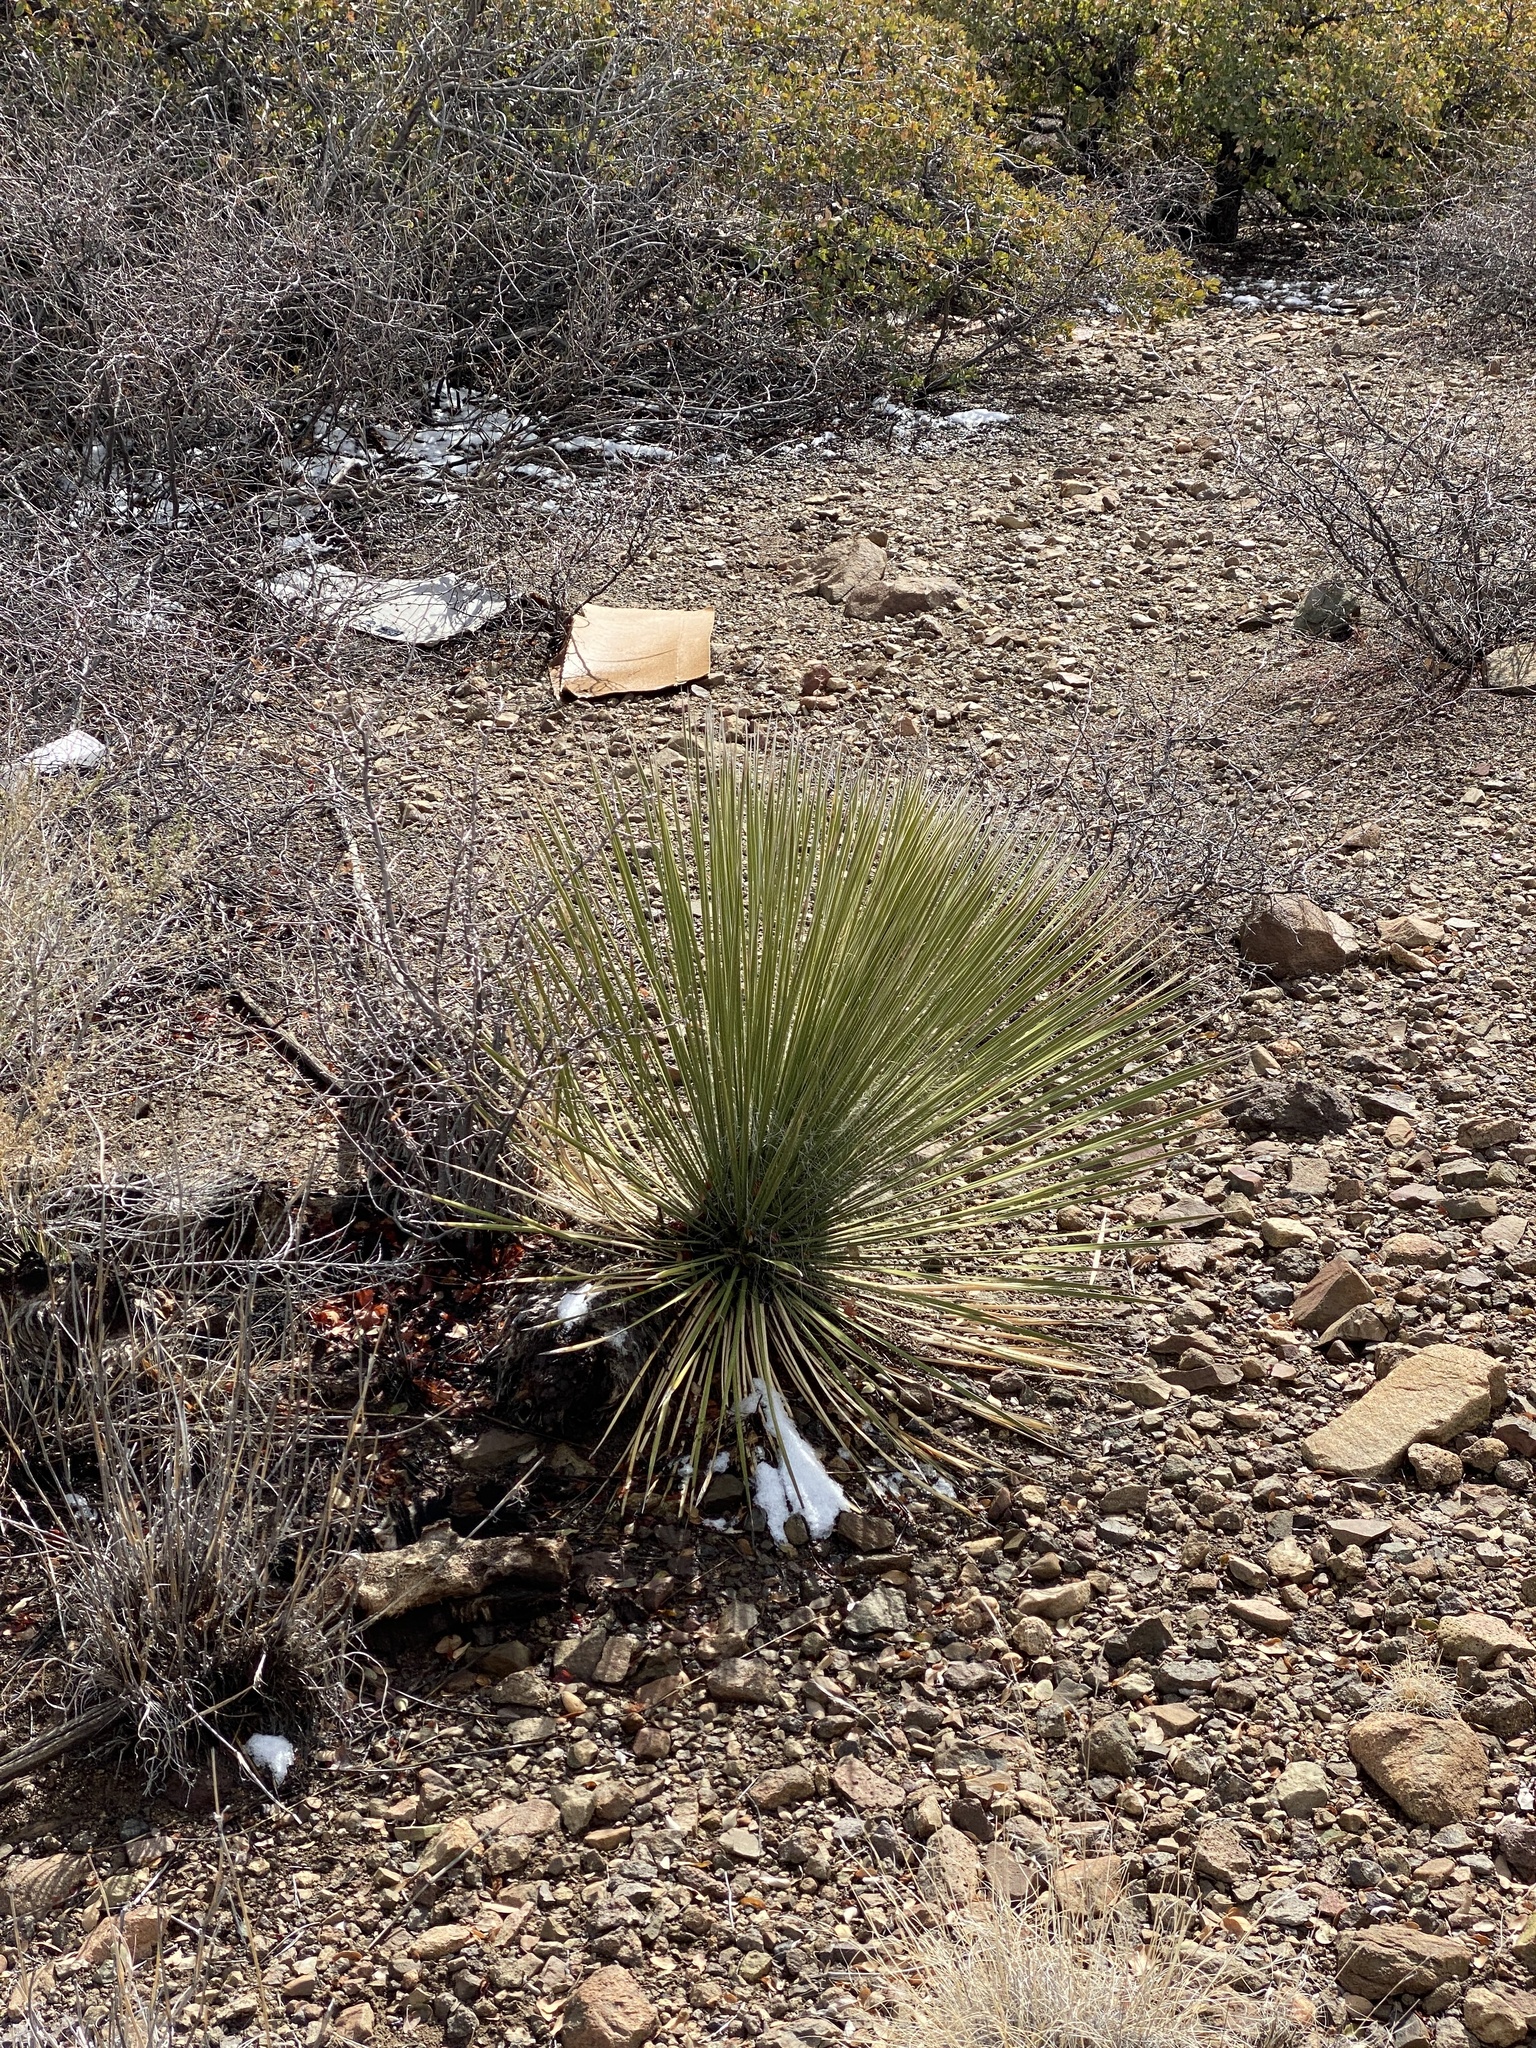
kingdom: Plantae
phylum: Tracheophyta
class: Liliopsida
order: Asparagales
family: Asparagaceae
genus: Yucca
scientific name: Yucca elata
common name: Palmella
